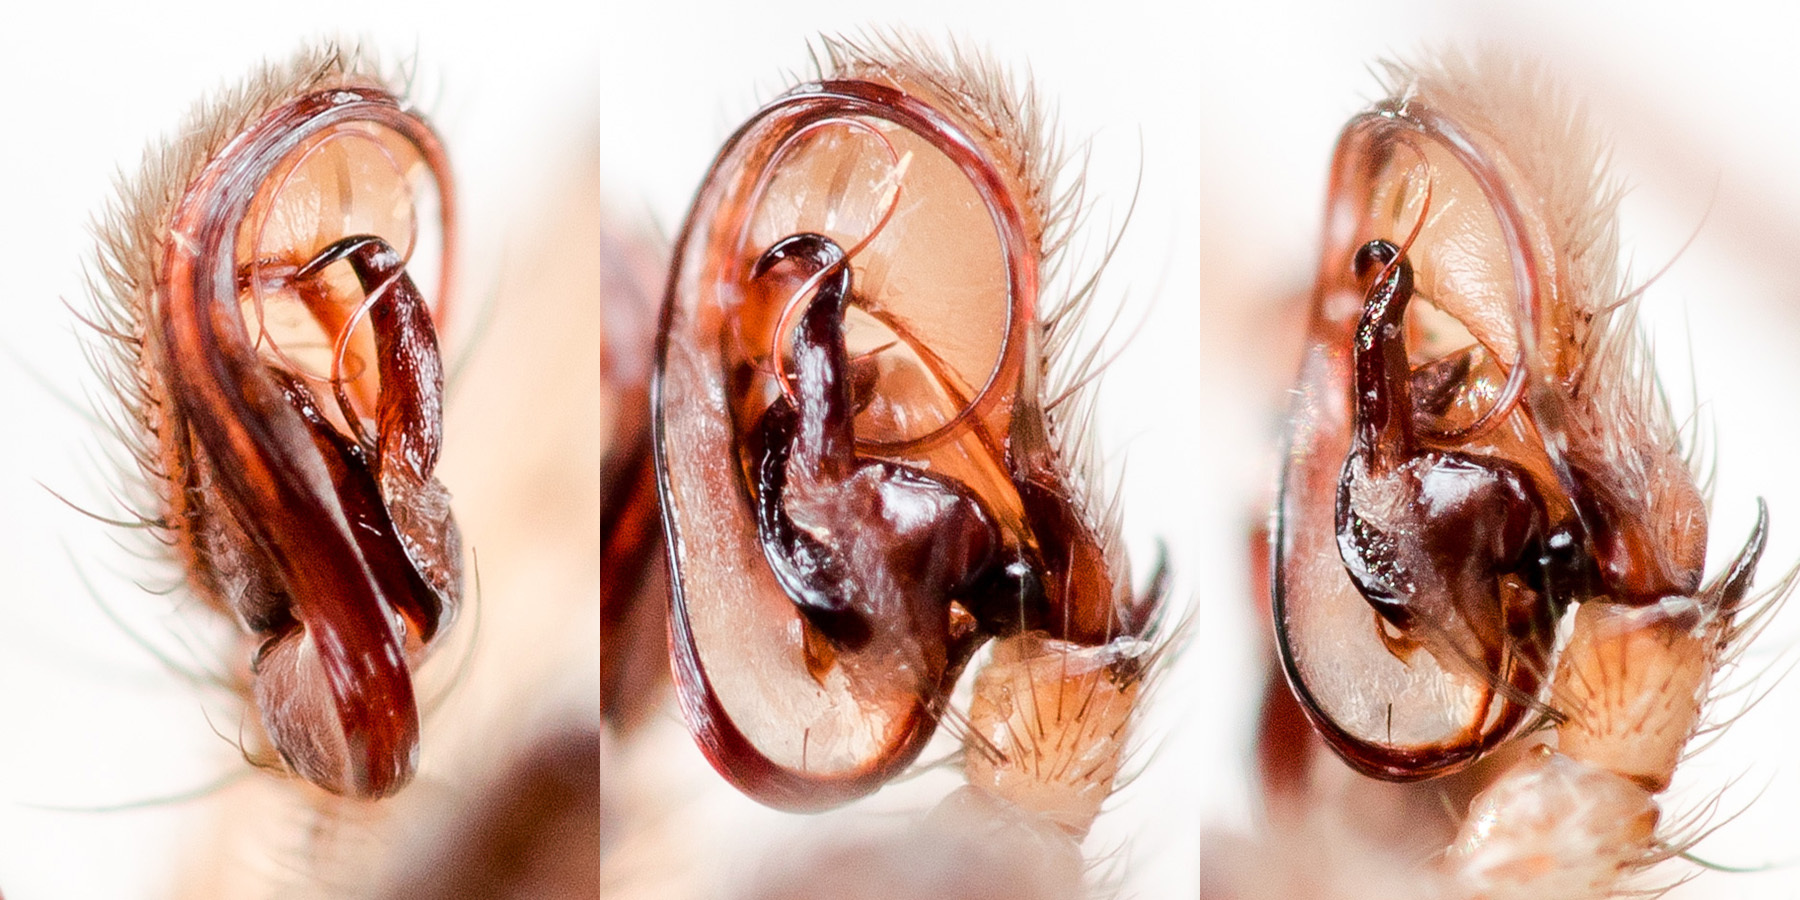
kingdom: Animalia
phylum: Arthropoda
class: Arachnida
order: Araneae
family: Gnaphosidae
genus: Fedotovia
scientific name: Fedotovia mongolica
